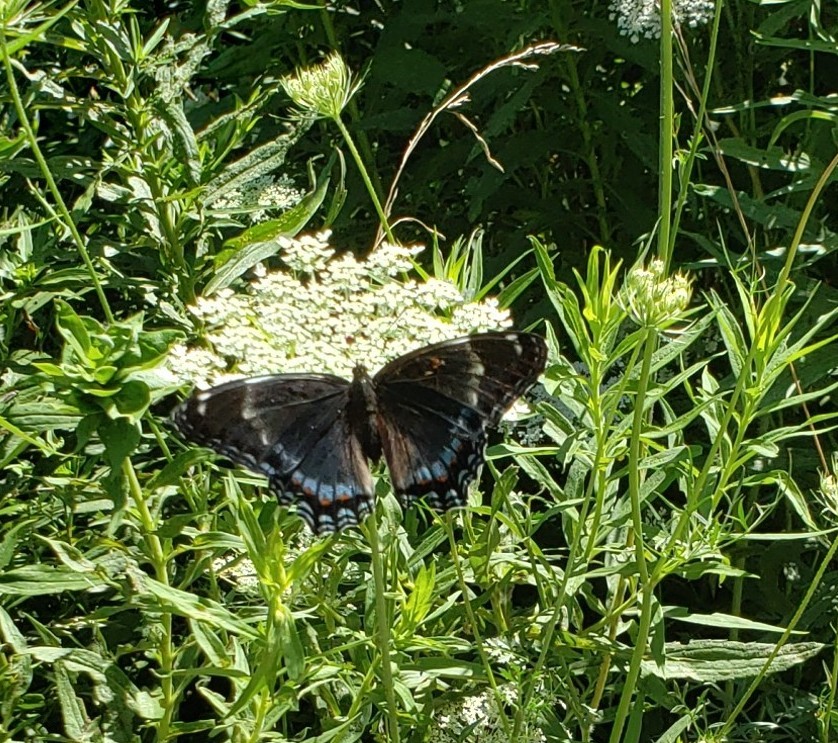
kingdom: Animalia
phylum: Arthropoda
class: Insecta
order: Lepidoptera
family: Nymphalidae
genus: Limenitis
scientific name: Limenitis
